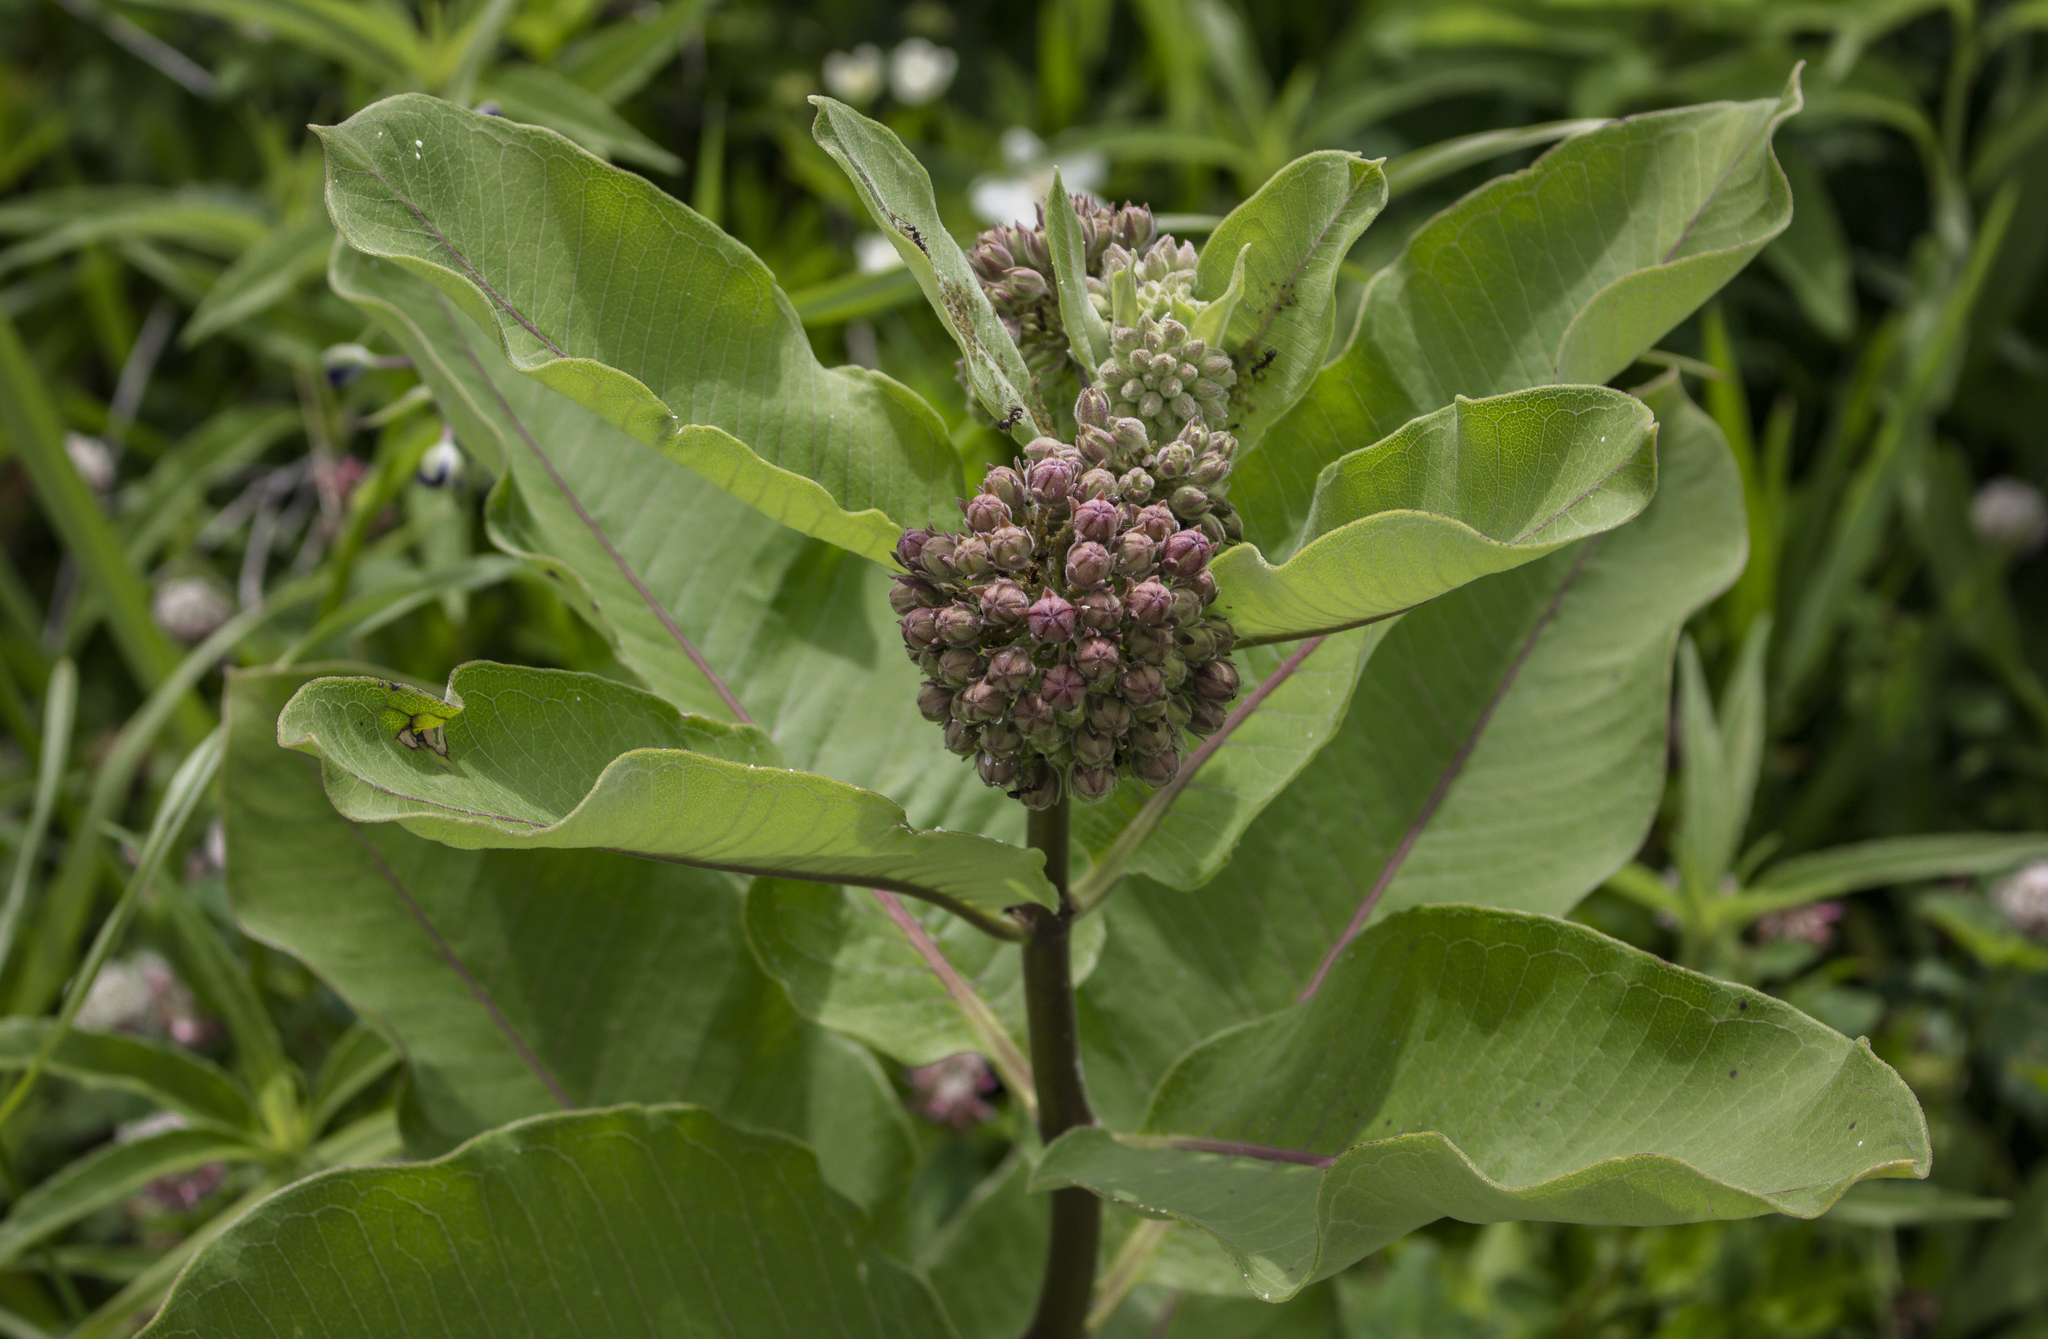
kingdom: Plantae
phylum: Tracheophyta
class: Magnoliopsida
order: Gentianales
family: Apocynaceae
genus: Asclepias
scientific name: Asclepias syriaca
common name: Common milkweed
